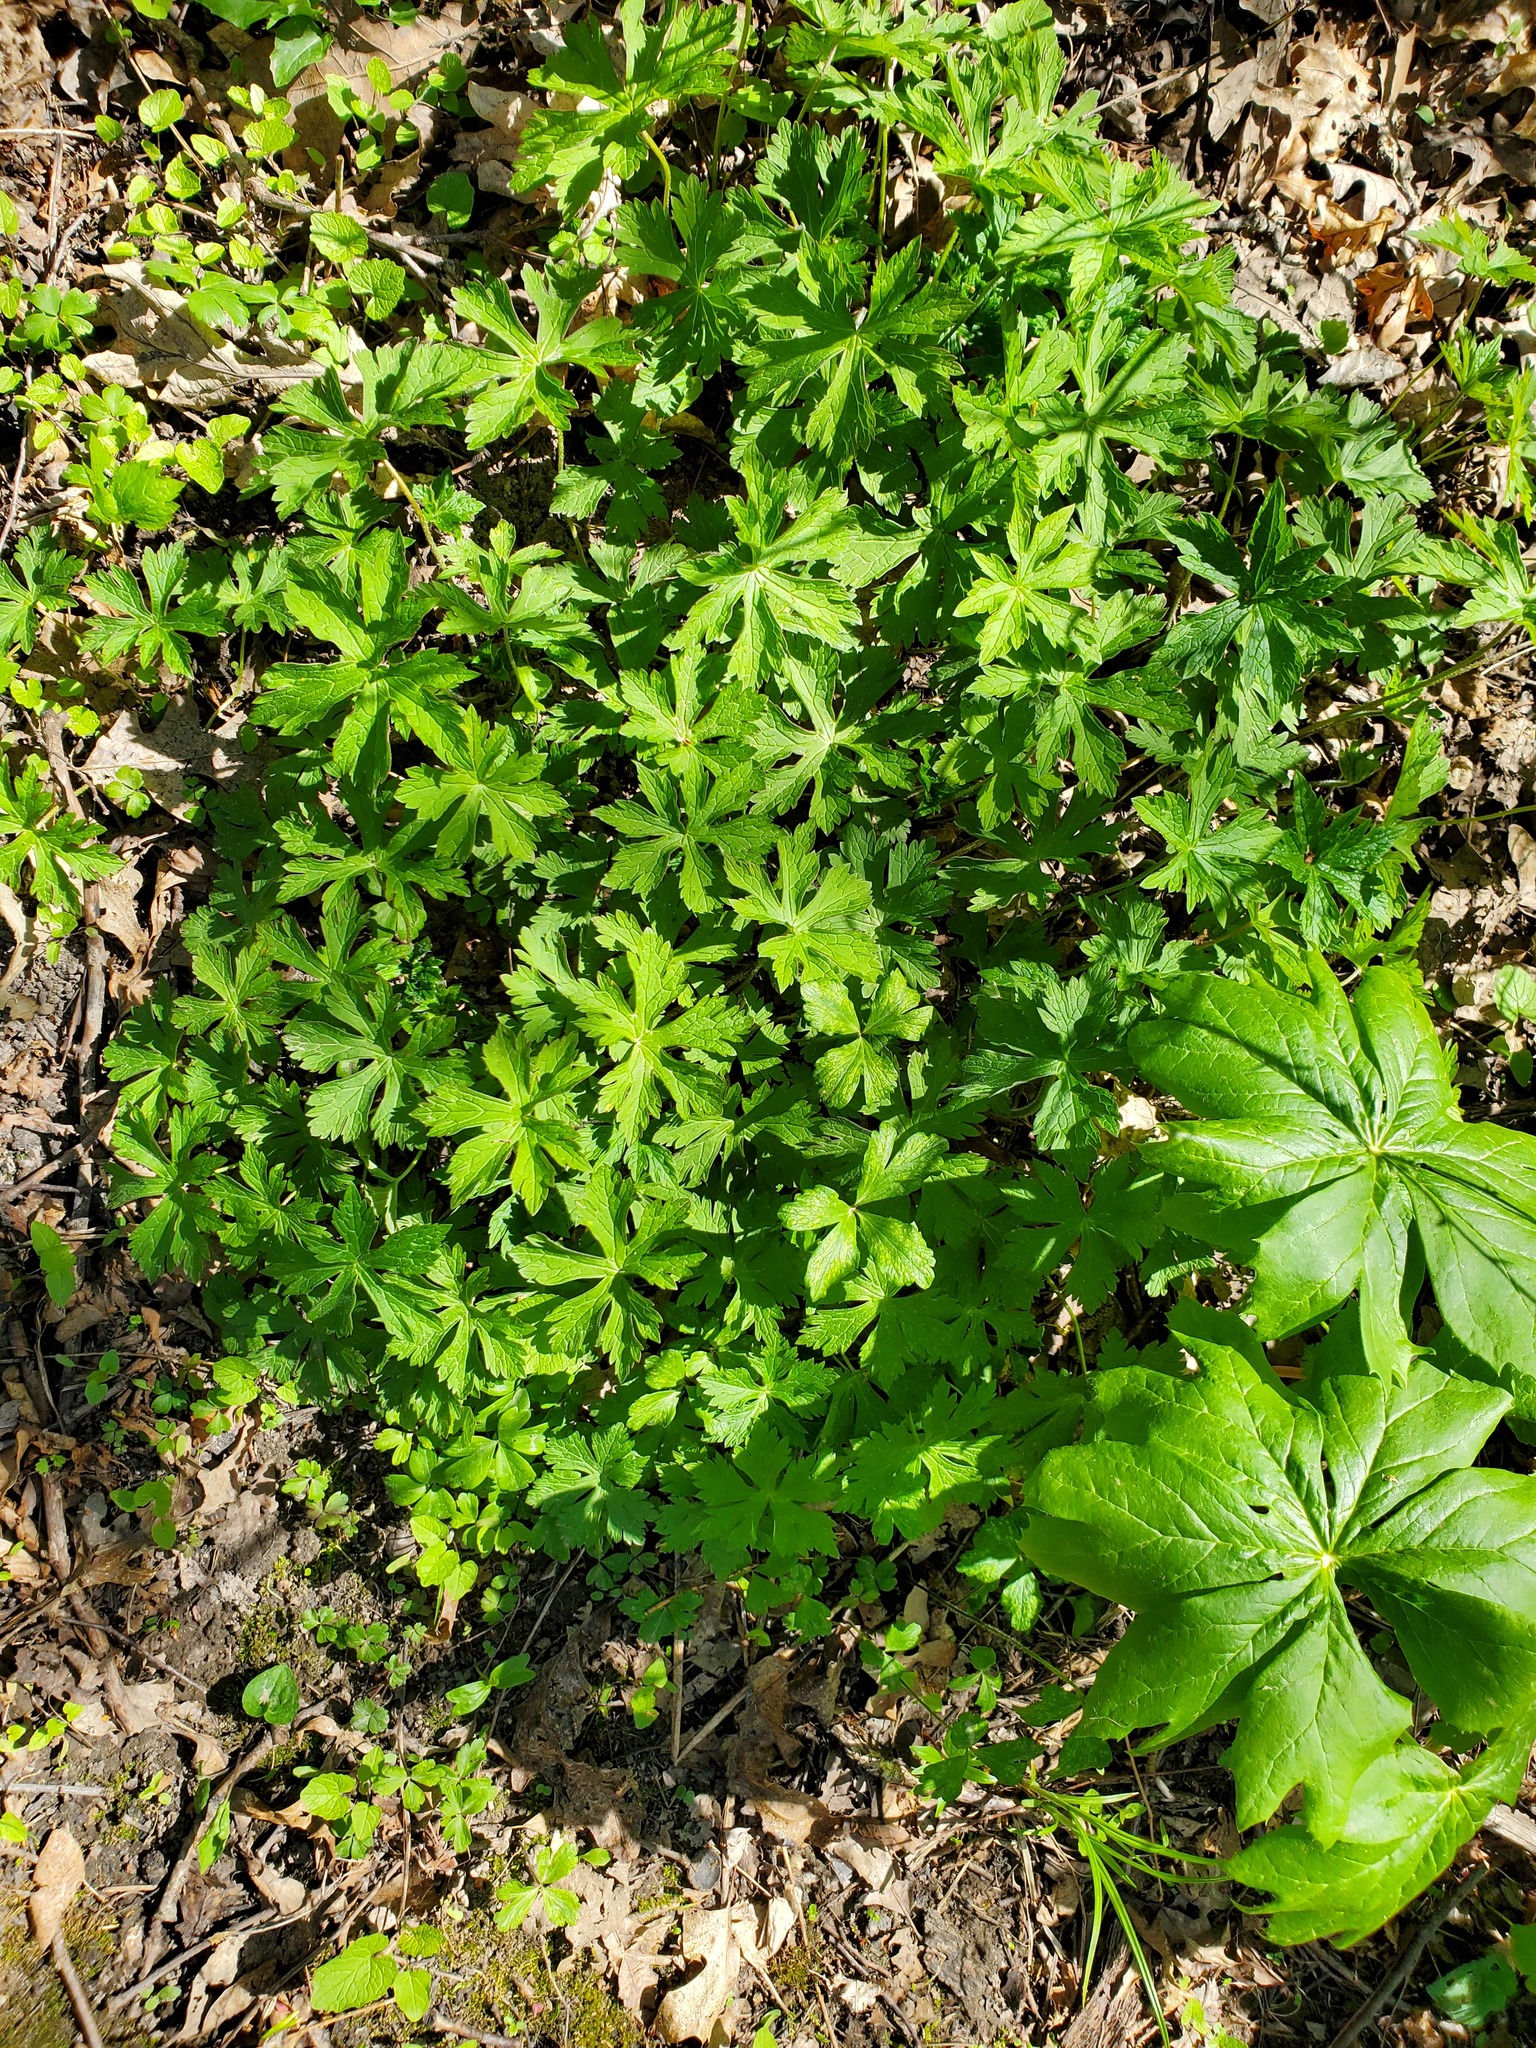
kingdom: Plantae
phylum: Tracheophyta
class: Magnoliopsida
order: Geraniales
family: Geraniaceae
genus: Geranium
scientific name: Geranium maculatum
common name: Spotted geranium
